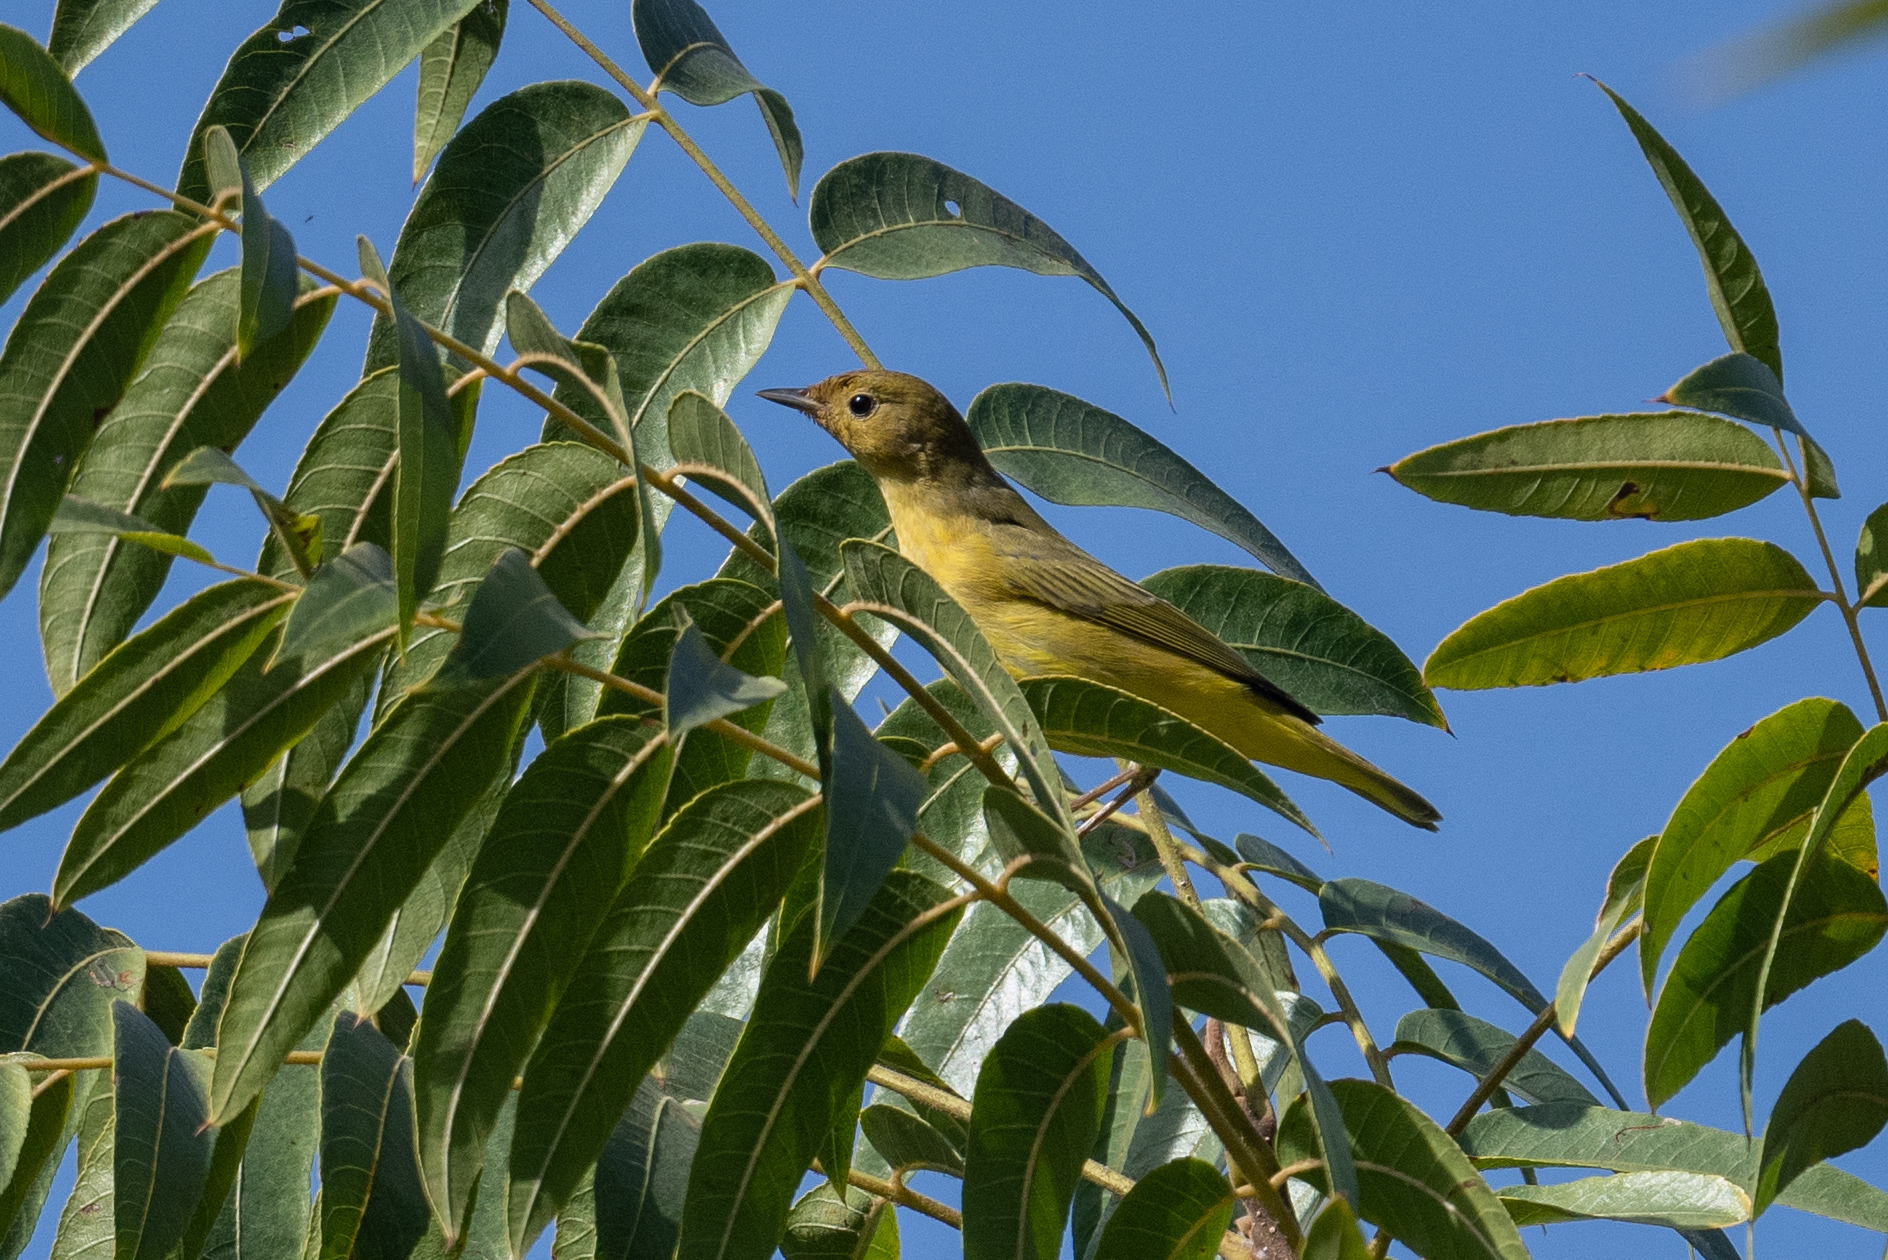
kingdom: Animalia
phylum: Chordata
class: Aves
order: Passeriformes
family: Parulidae
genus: Setophaga
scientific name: Setophaga petechia
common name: Yellow warbler
